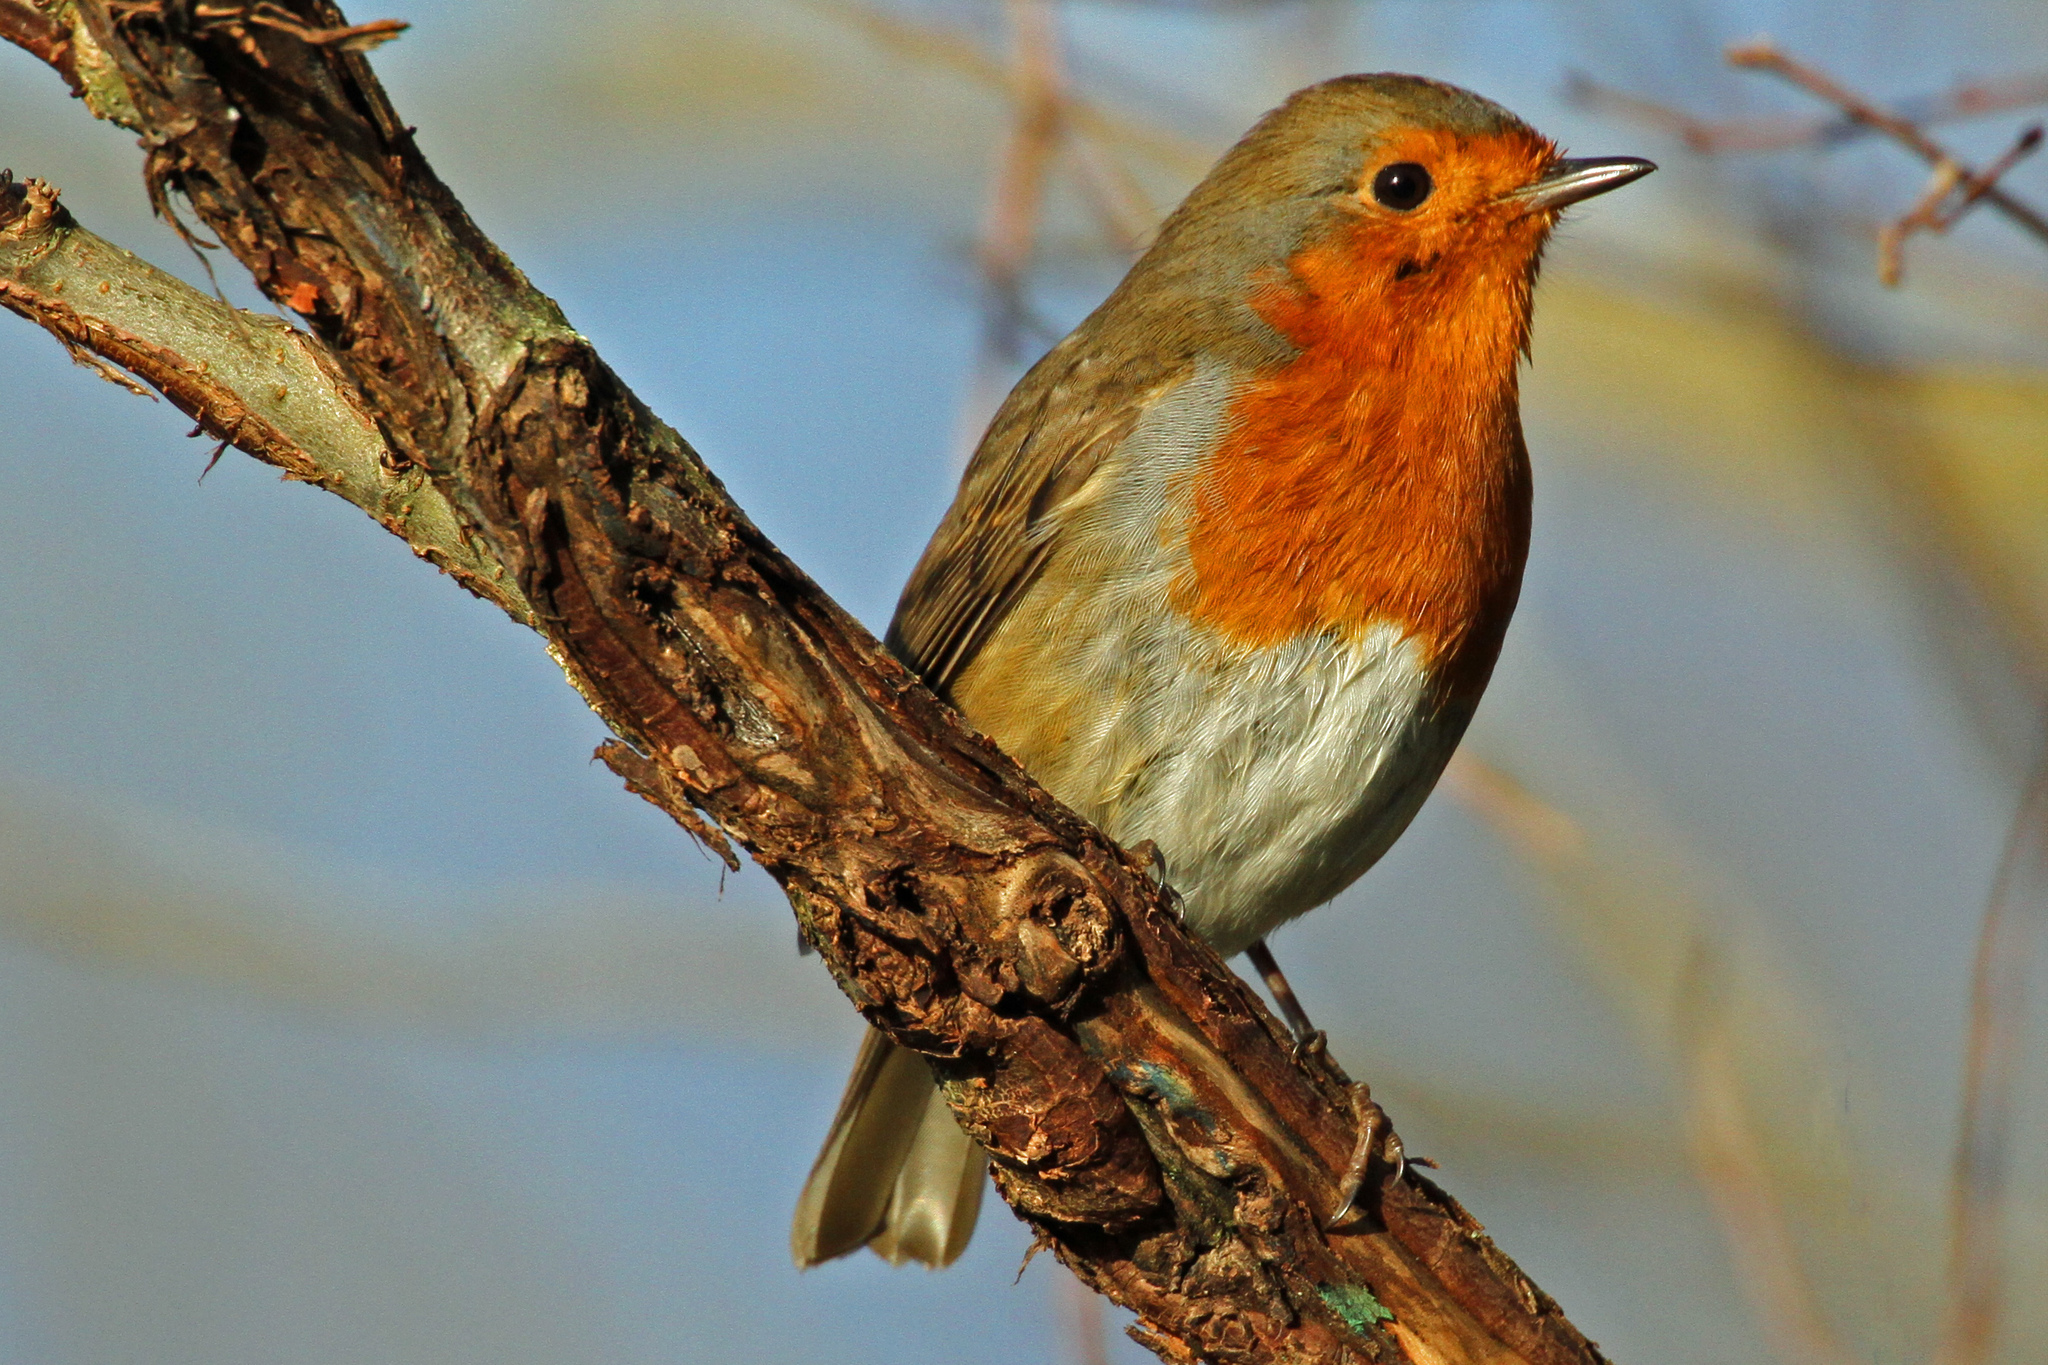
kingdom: Animalia
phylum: Chordata
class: Aves
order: Passeriformes
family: Muscicapidae
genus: Erithacus
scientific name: Erithacus rubecula
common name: European robin
